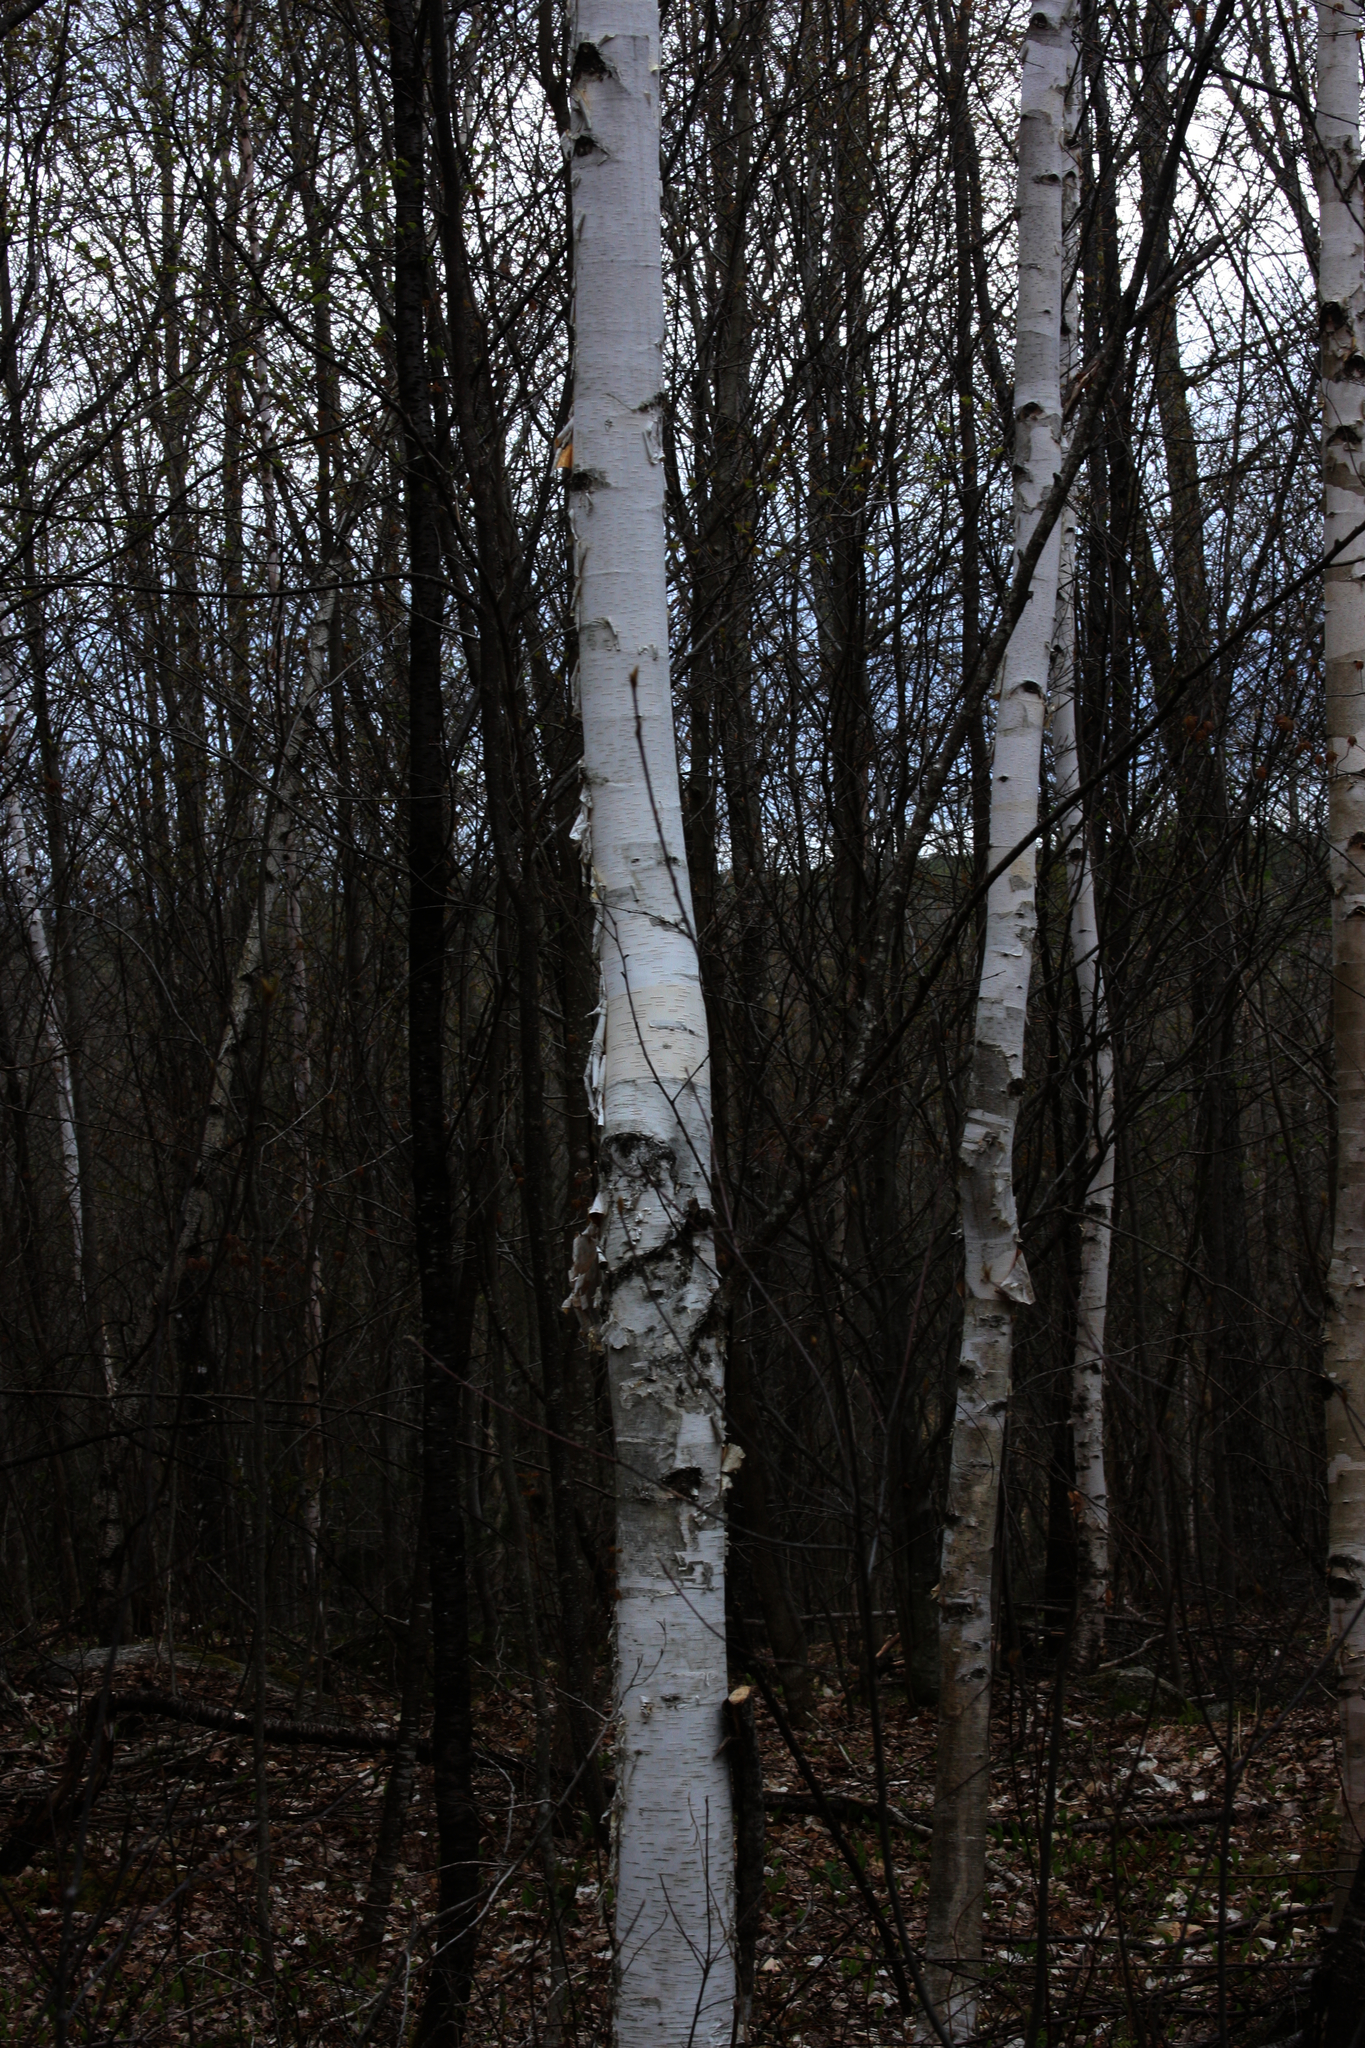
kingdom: Plantae
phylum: Tracheophyta
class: Magnoliopsida
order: Fagales
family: Betulaceae
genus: Betula
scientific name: Betula papyrifera
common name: Paper birch
